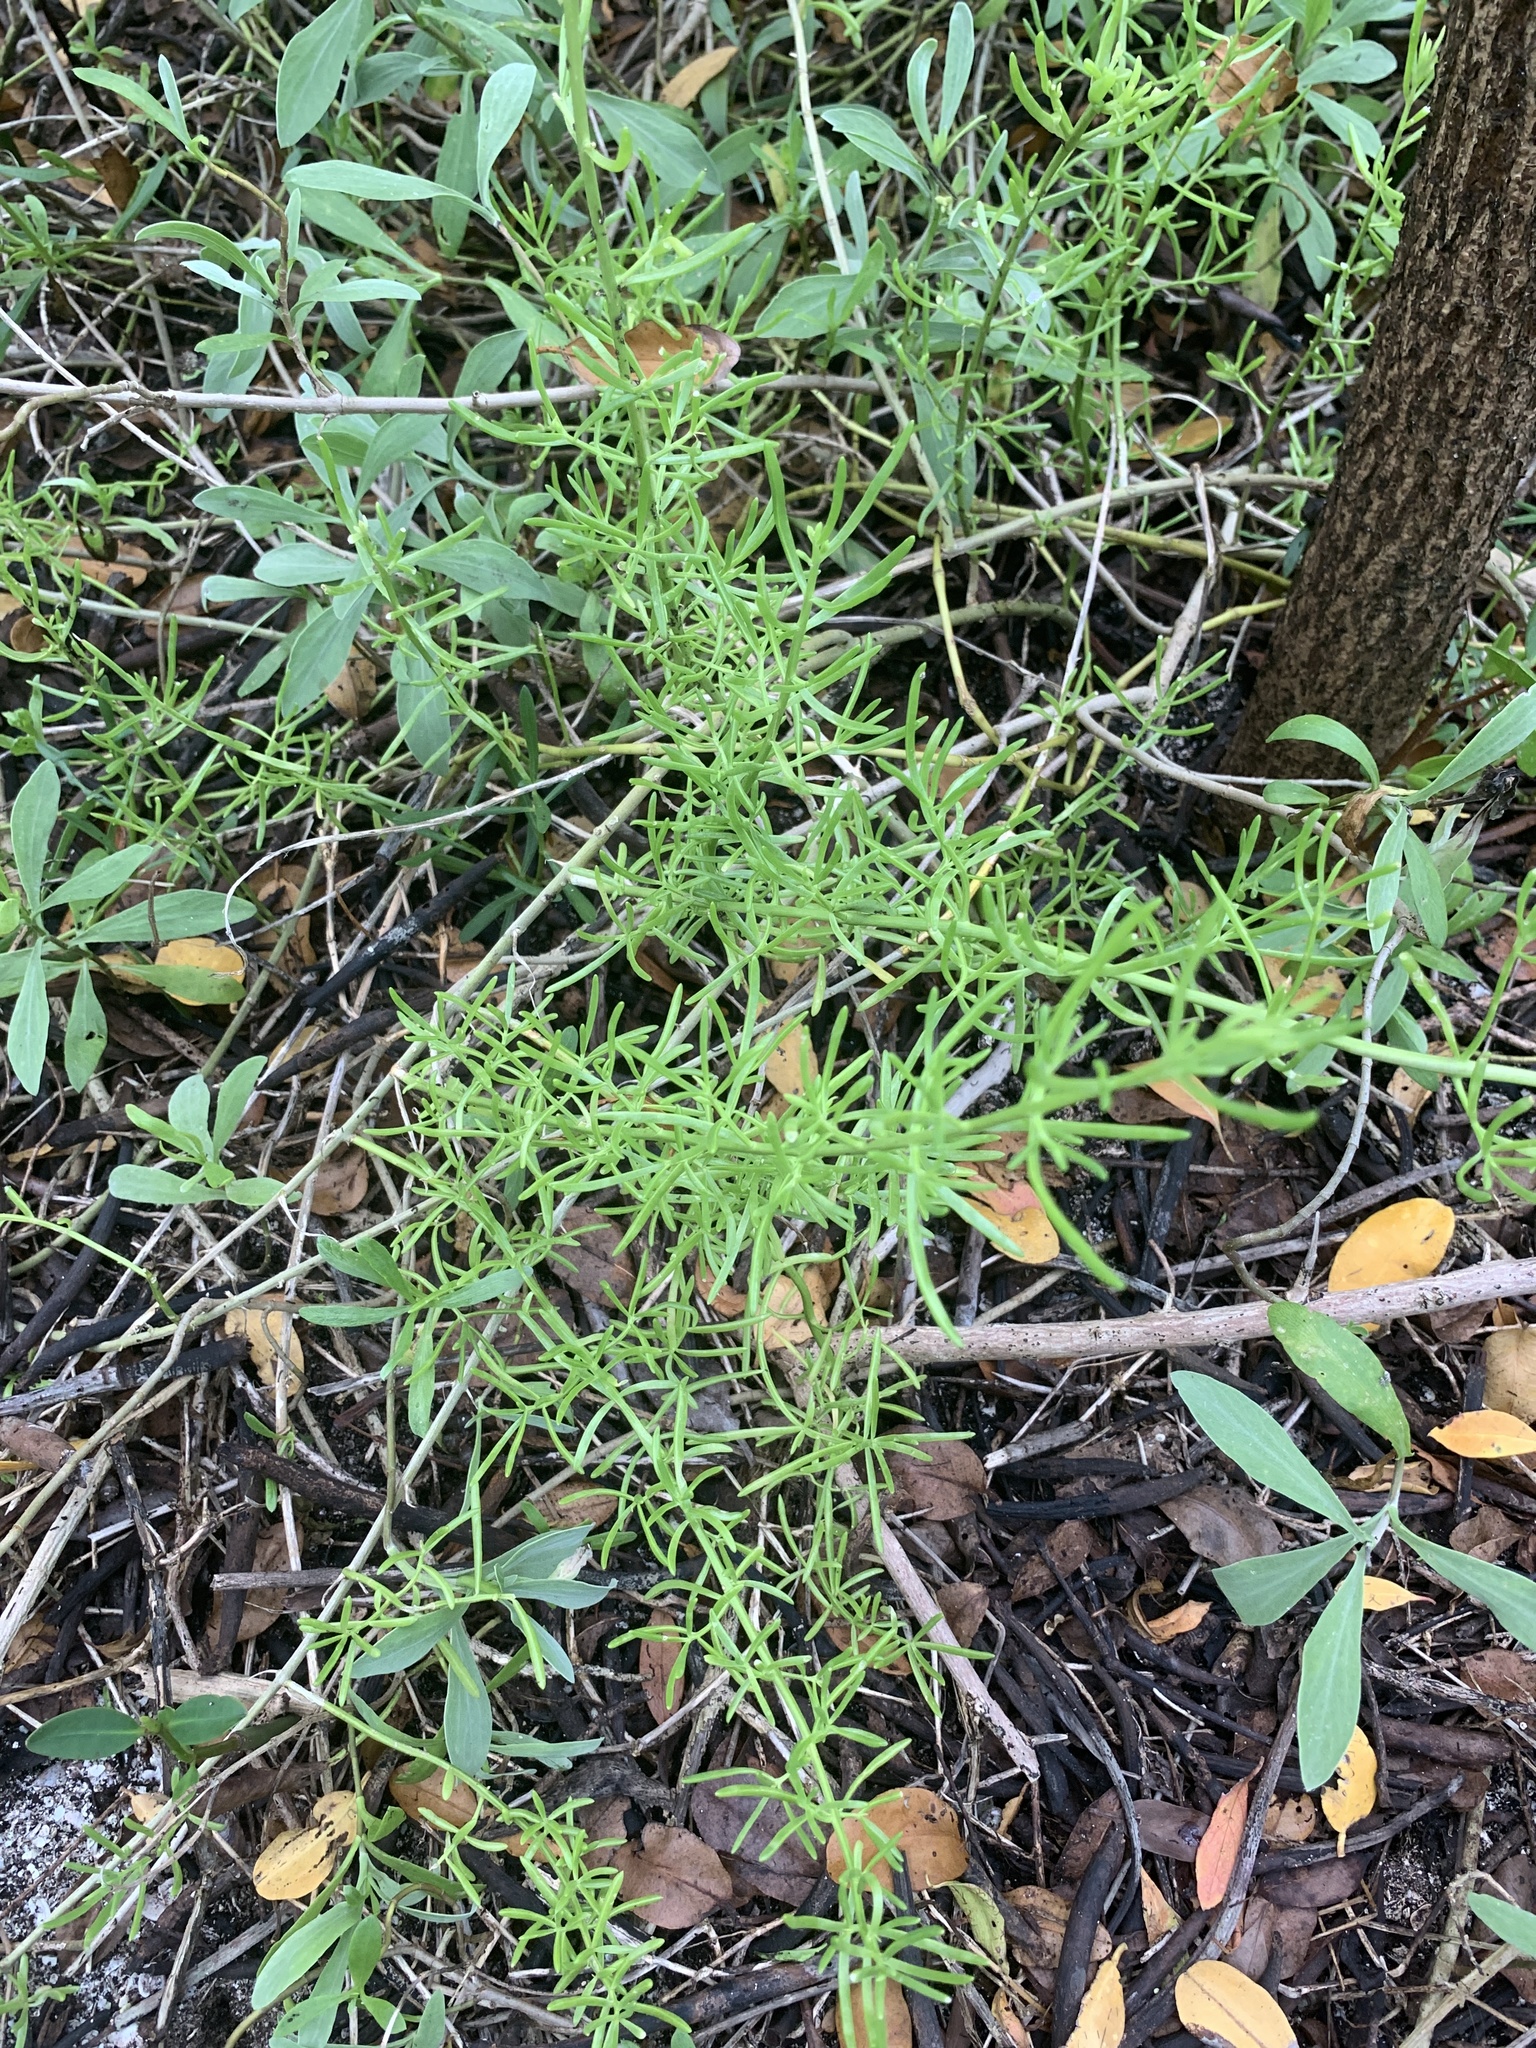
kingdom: Plantae
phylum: Tracheophyta
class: Magnoliopsida
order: Brassicales
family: Bataceae
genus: Batis
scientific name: Batis maritima
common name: Turtleweed
